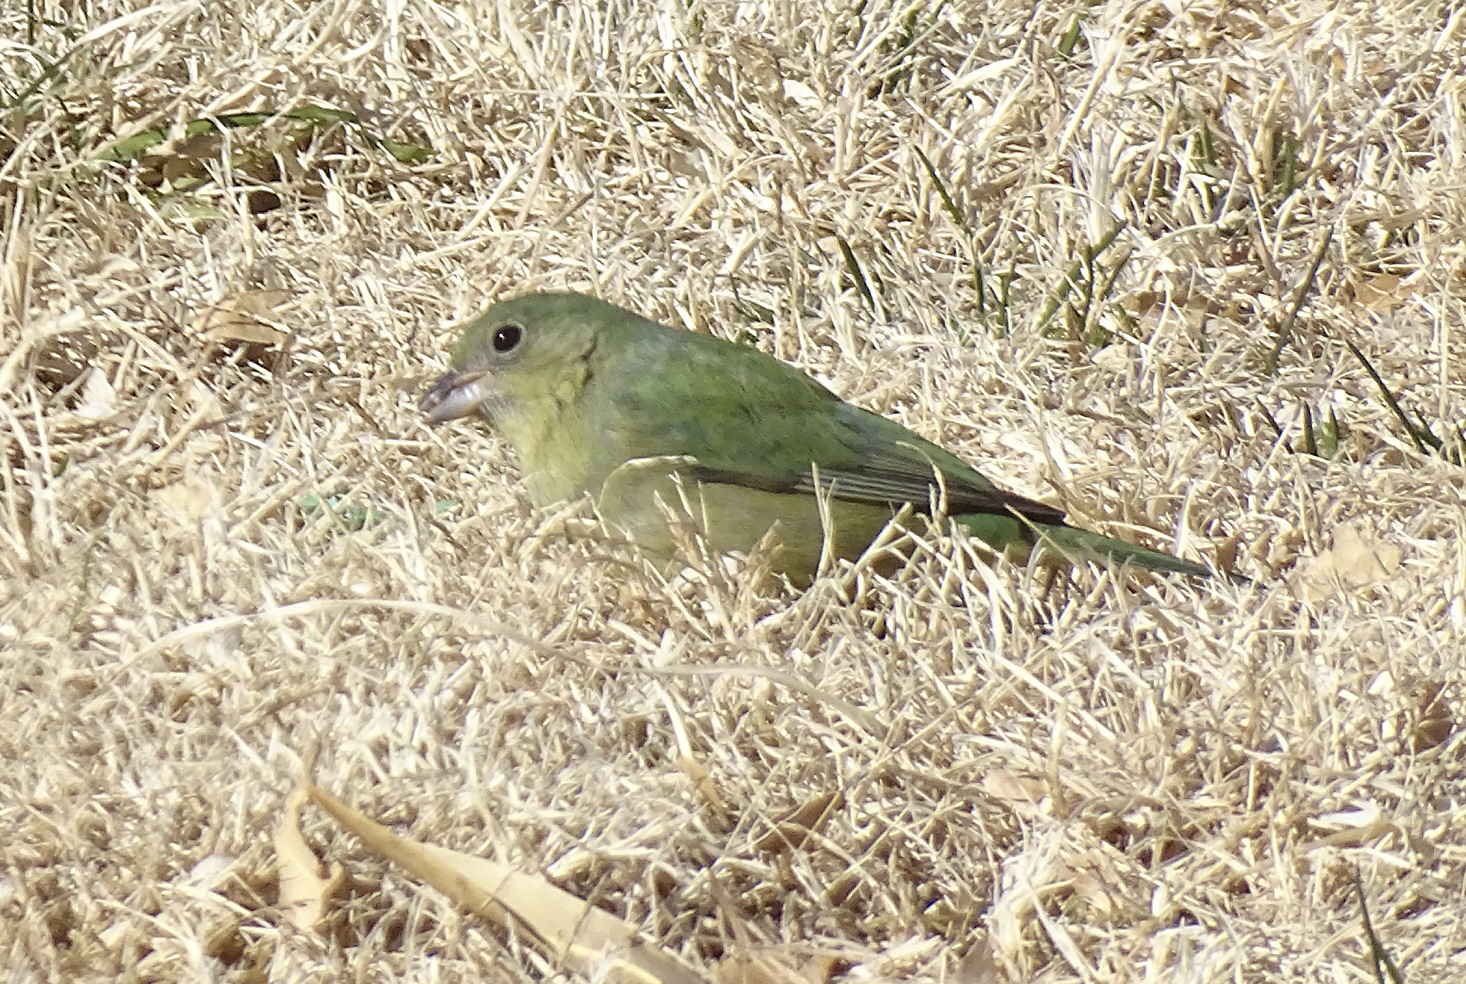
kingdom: Animalia
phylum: Chordata
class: Aves
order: Passeriformes
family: Cardinalidae
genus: Passerina
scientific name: Passerina ciris
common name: Painted bunting
